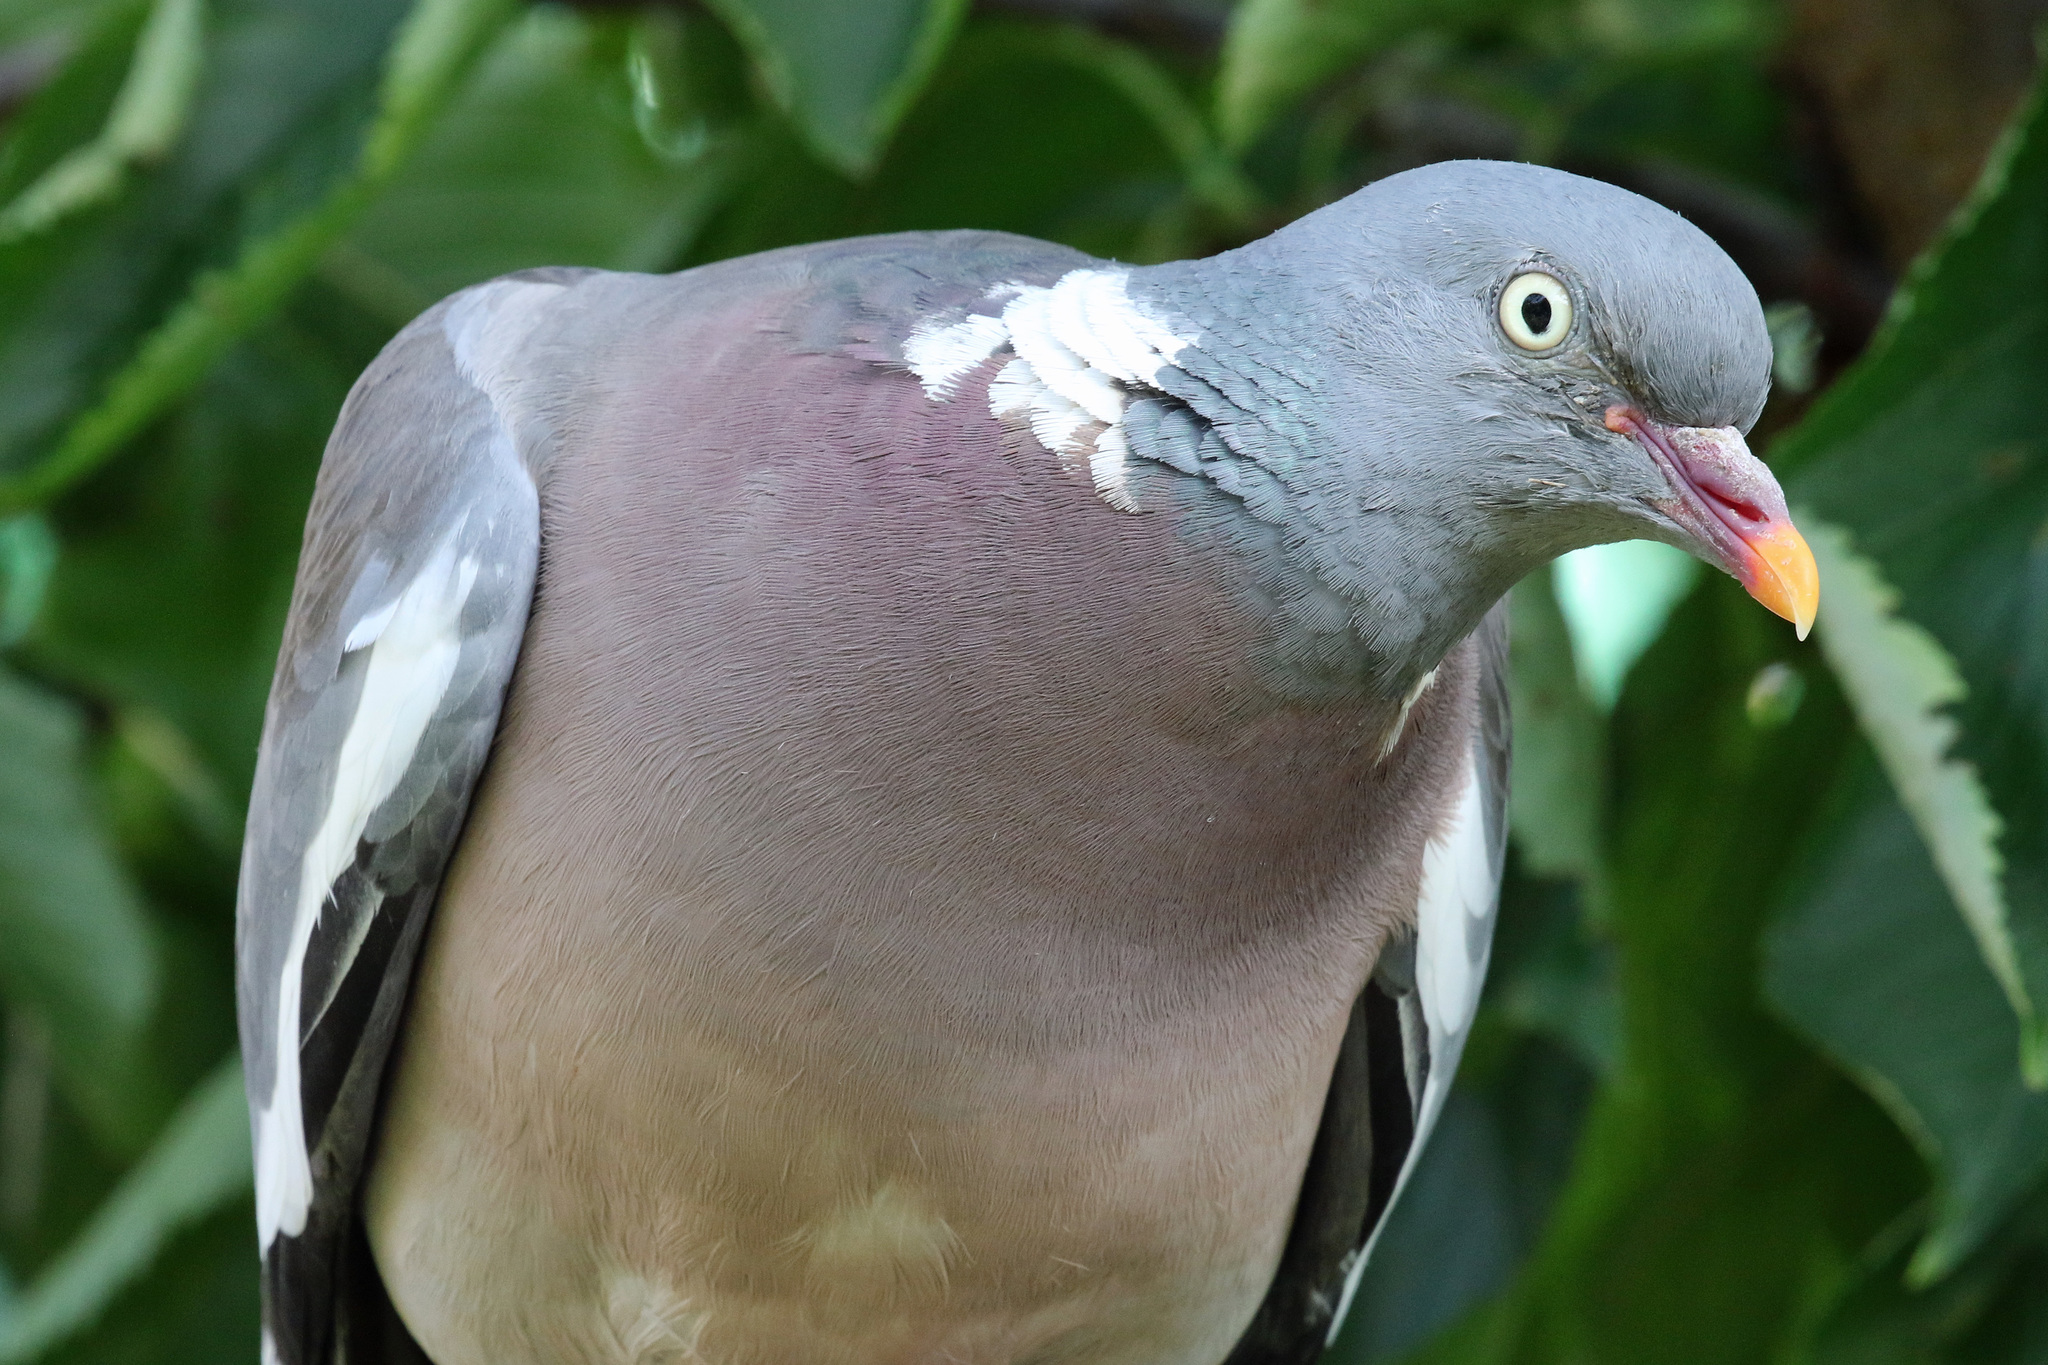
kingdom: Animalia
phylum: Chordata
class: Aves
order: Columbiformes
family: Columbidae
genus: Columba
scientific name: Columba palumbus
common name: Common wood pigeon
